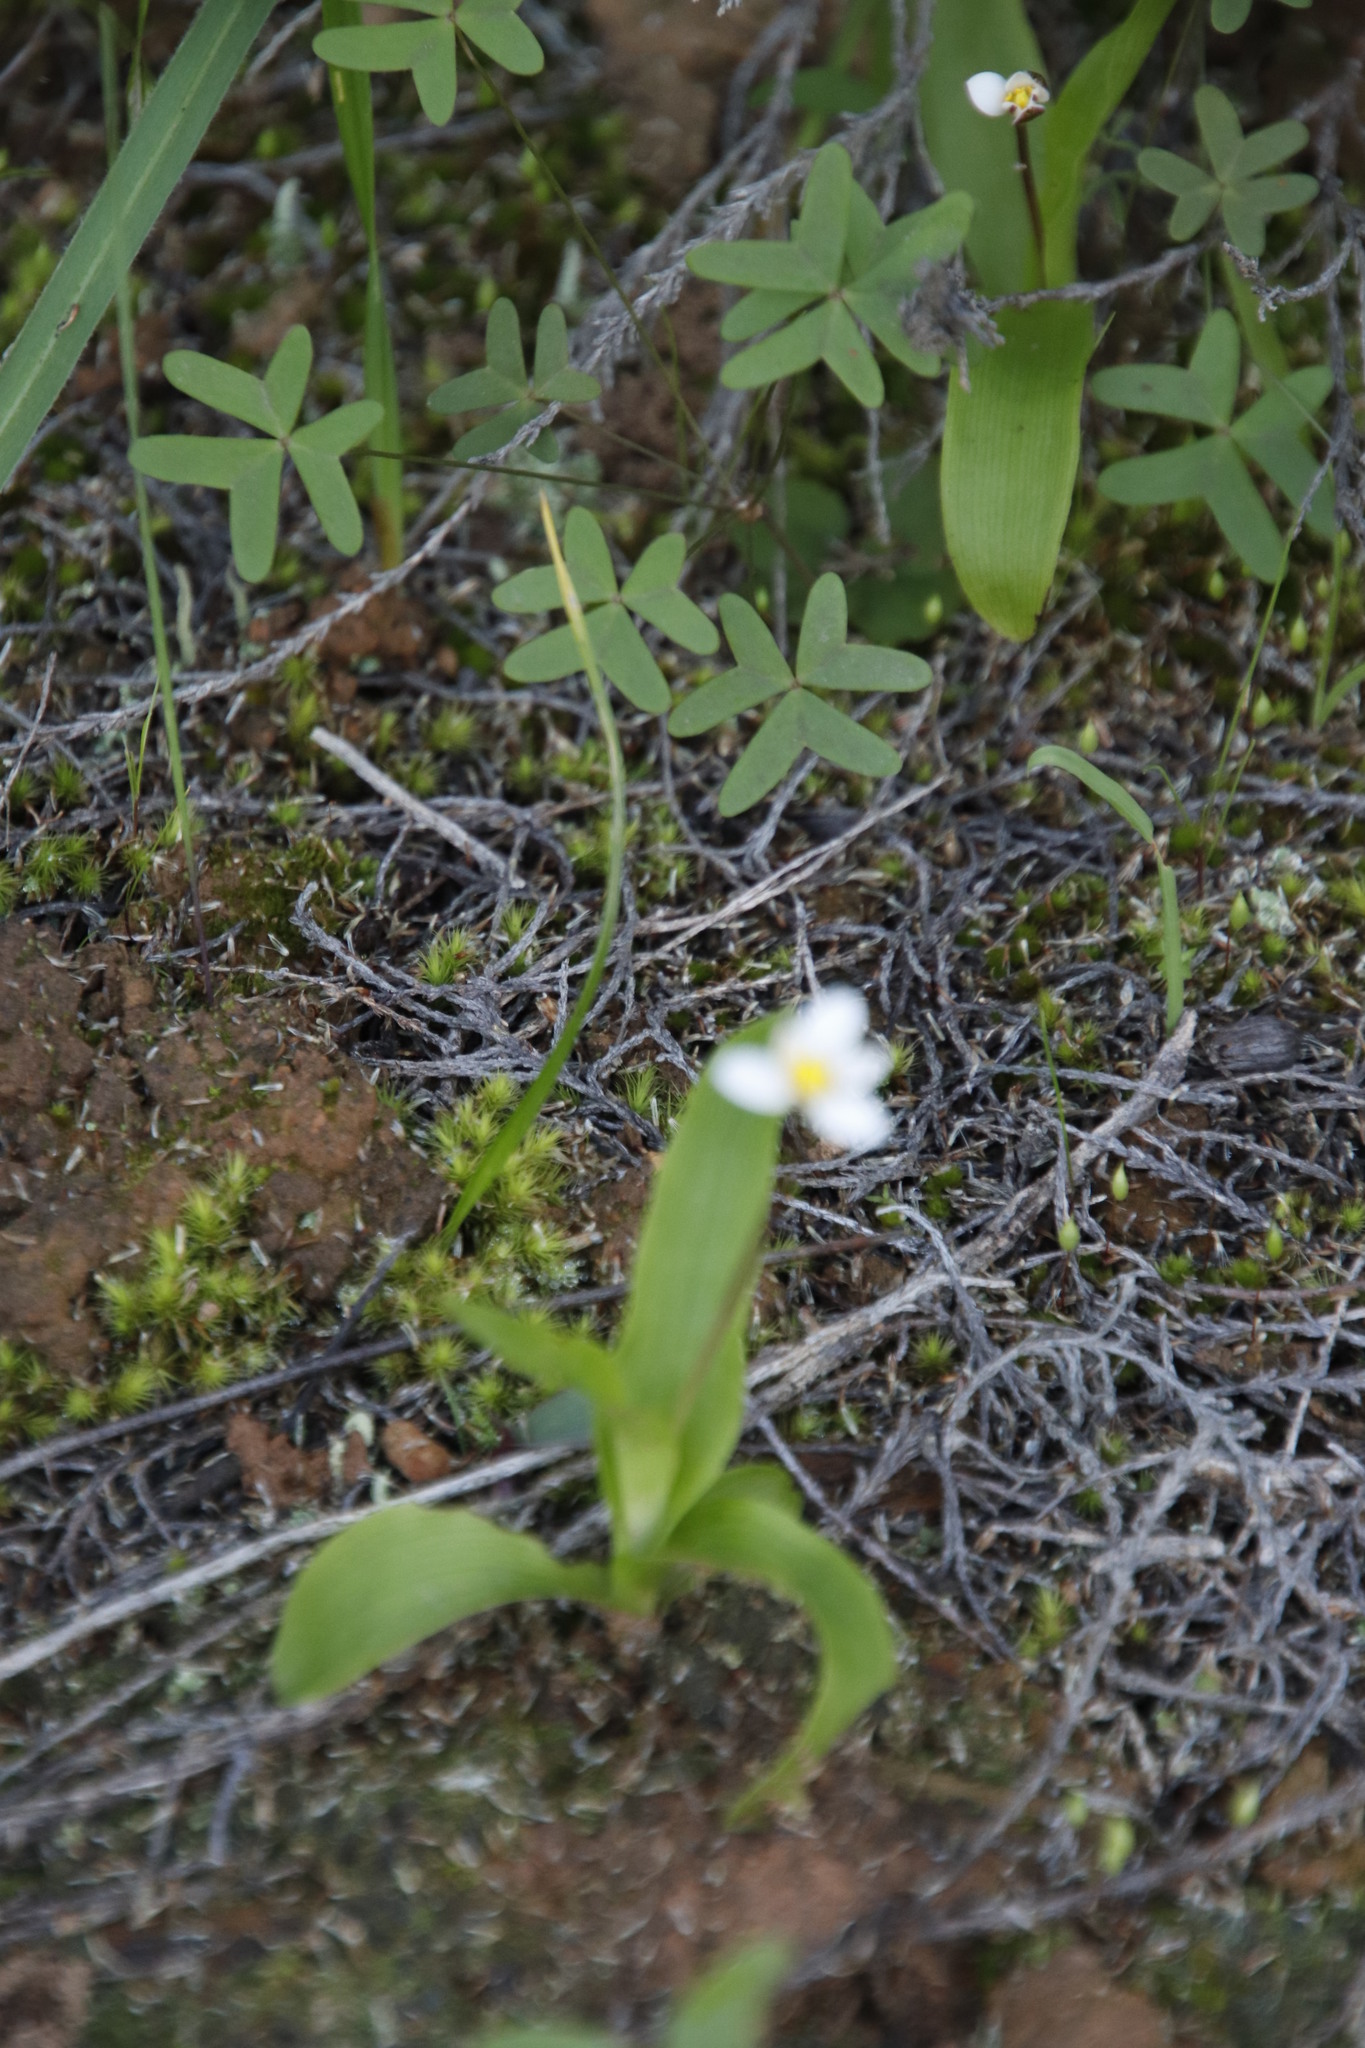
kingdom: Plantae
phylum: Tracheophyta
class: Liliopsida
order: Asparagales
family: Hypoxidaceae
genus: Pauridia
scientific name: Pauridia ovata
